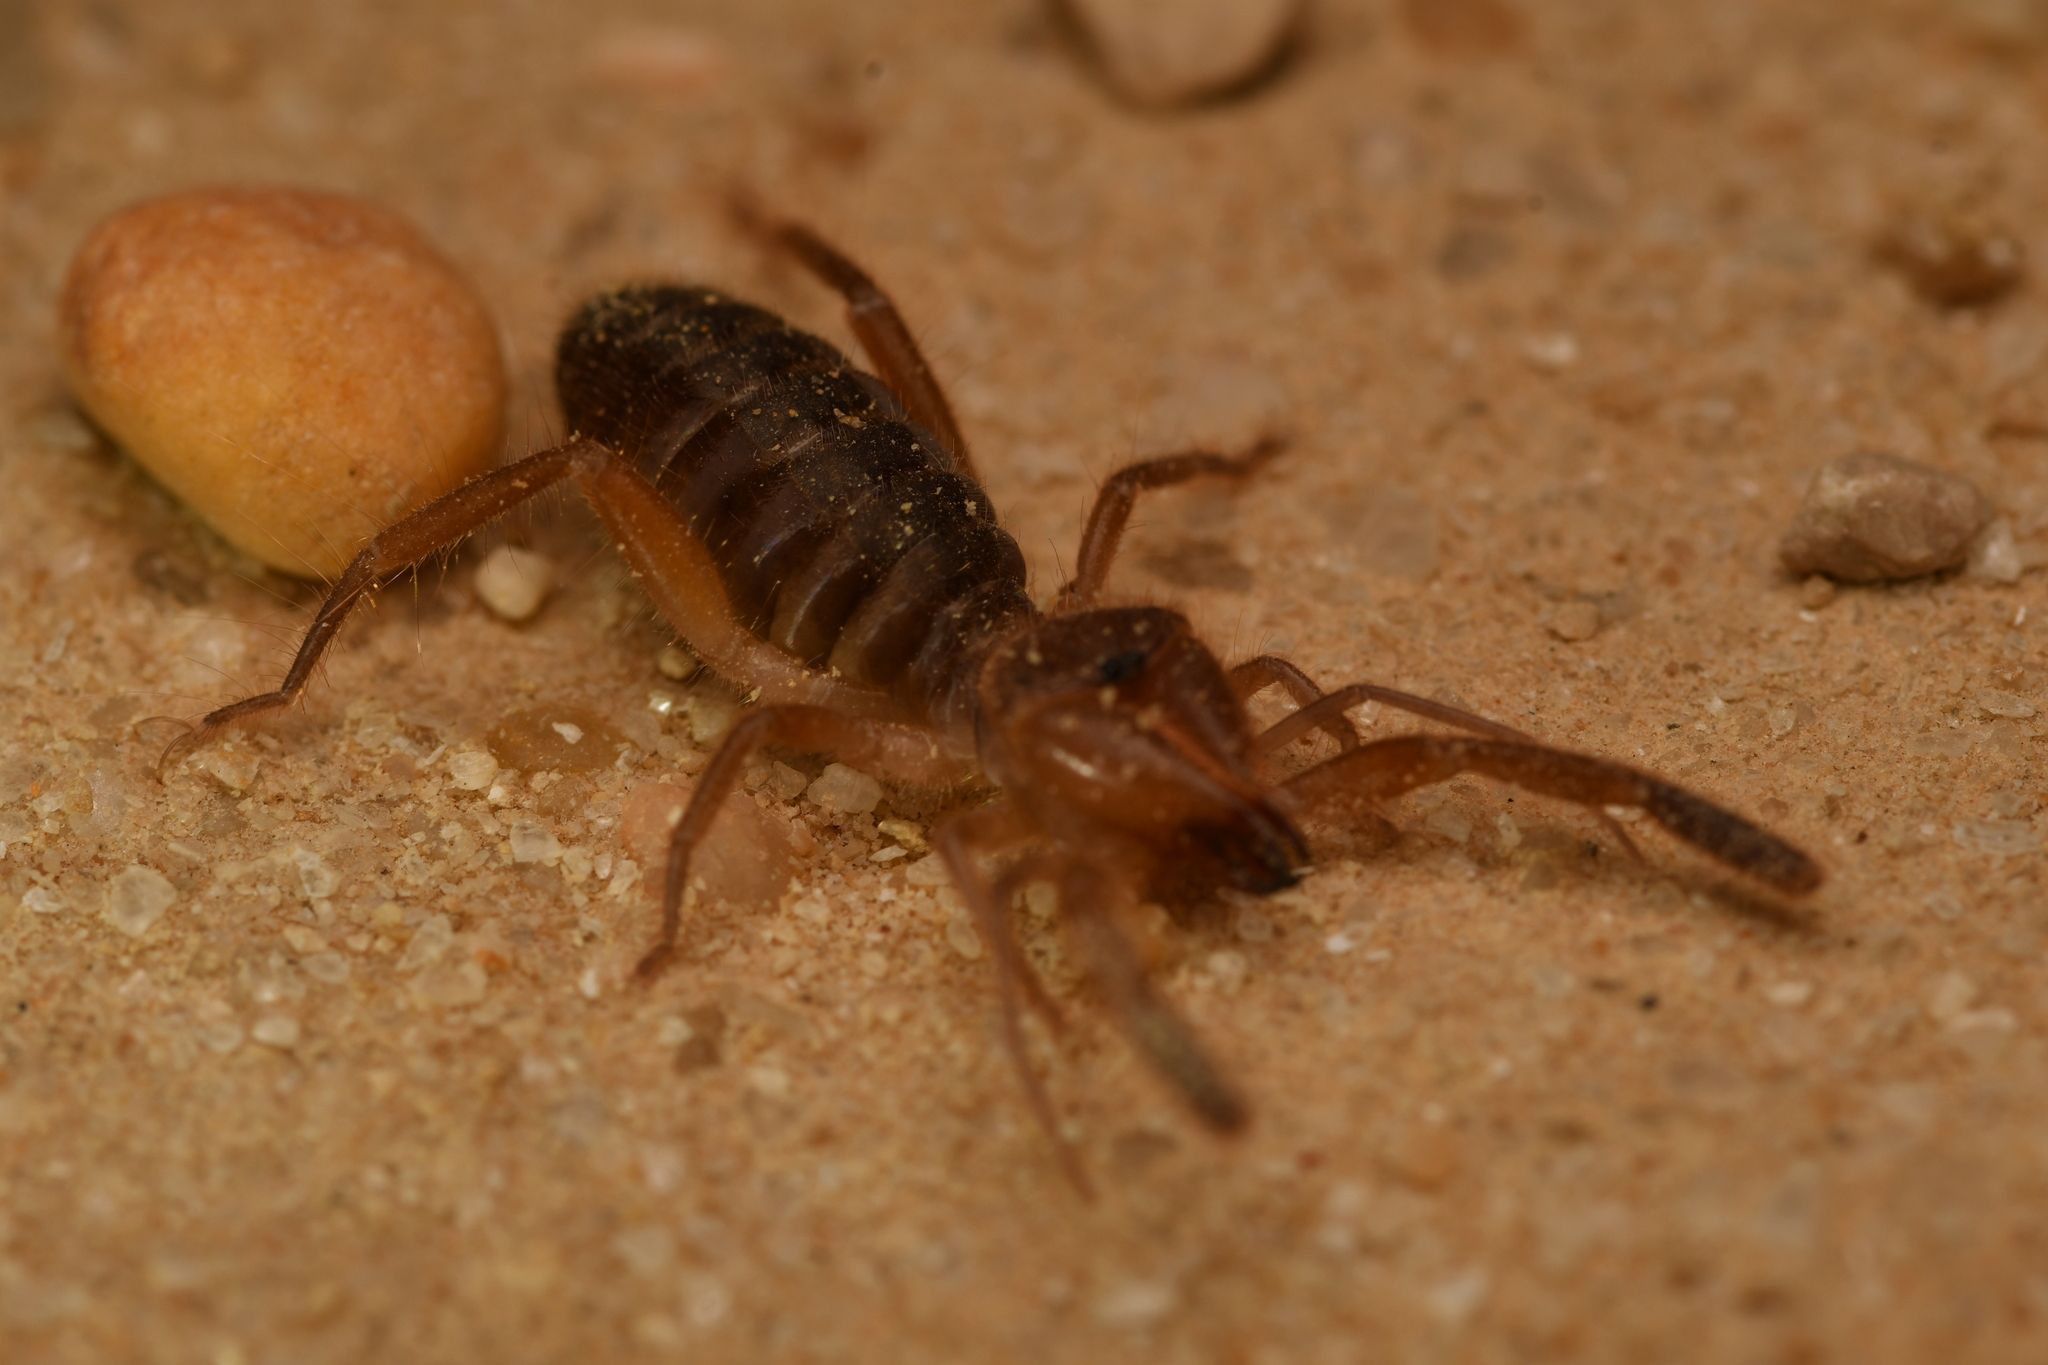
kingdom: Animalia
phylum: Arthropoda
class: Arachnida
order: Solifugae
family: Daesiidae
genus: Gluvia
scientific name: Gluvia dorsalis
